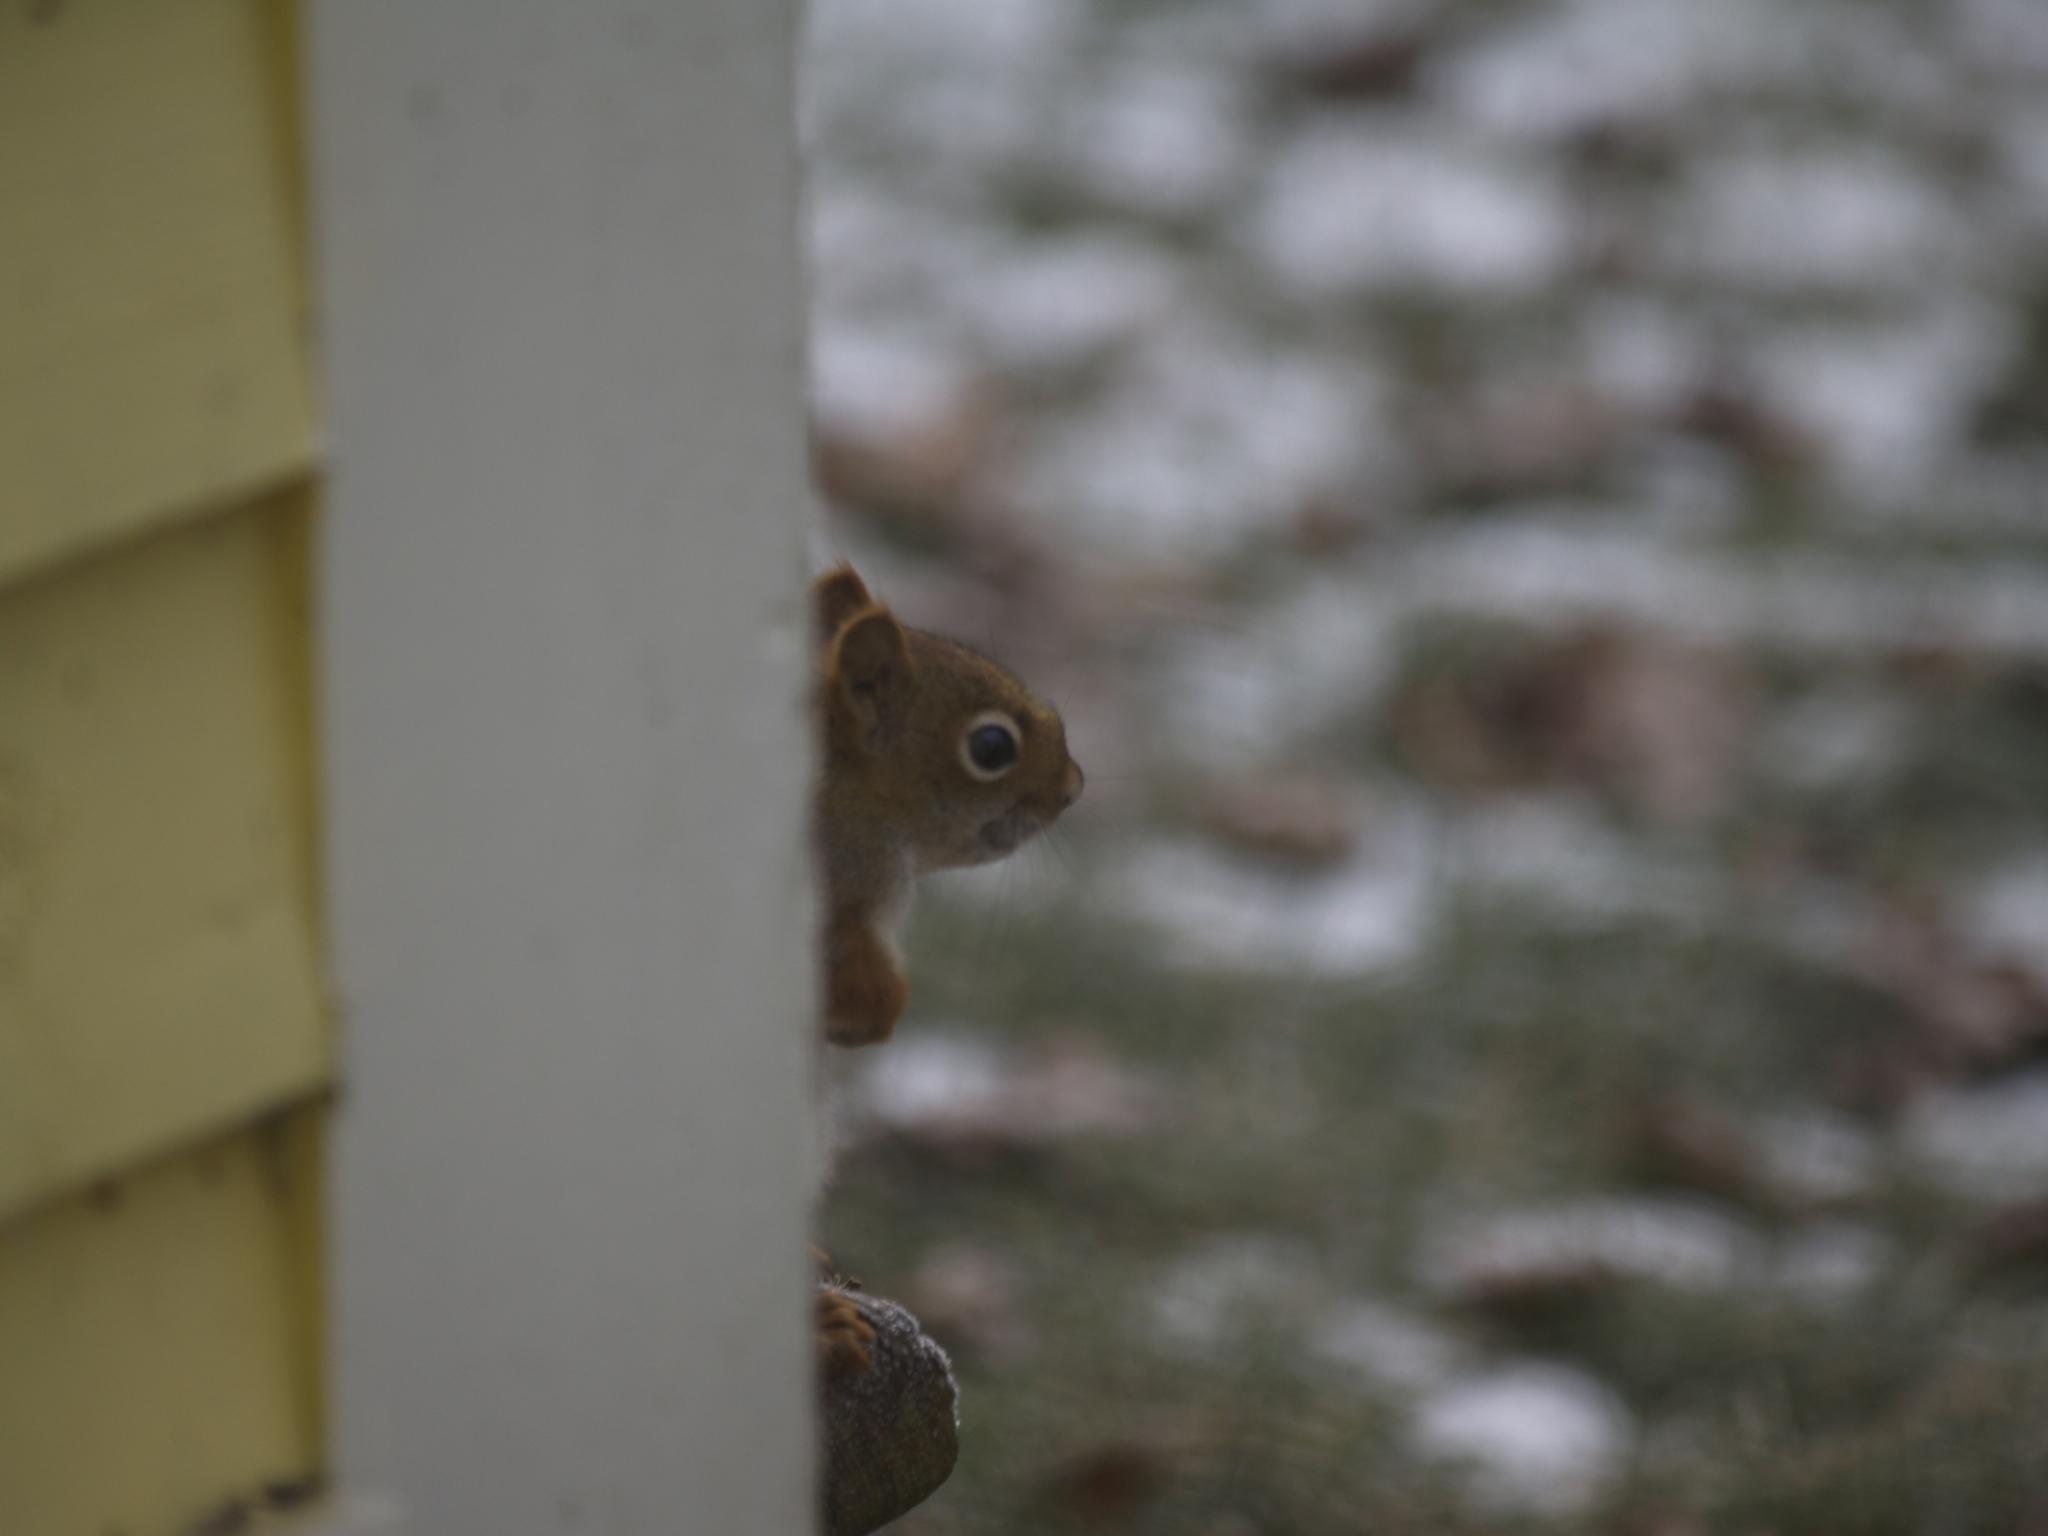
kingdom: Animalia
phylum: Chordata
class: Mammalia
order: Rodentia
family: Sciuridae
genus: Tamiasciurus
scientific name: Tamiasciurus hudsonicus
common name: Red squirrel
